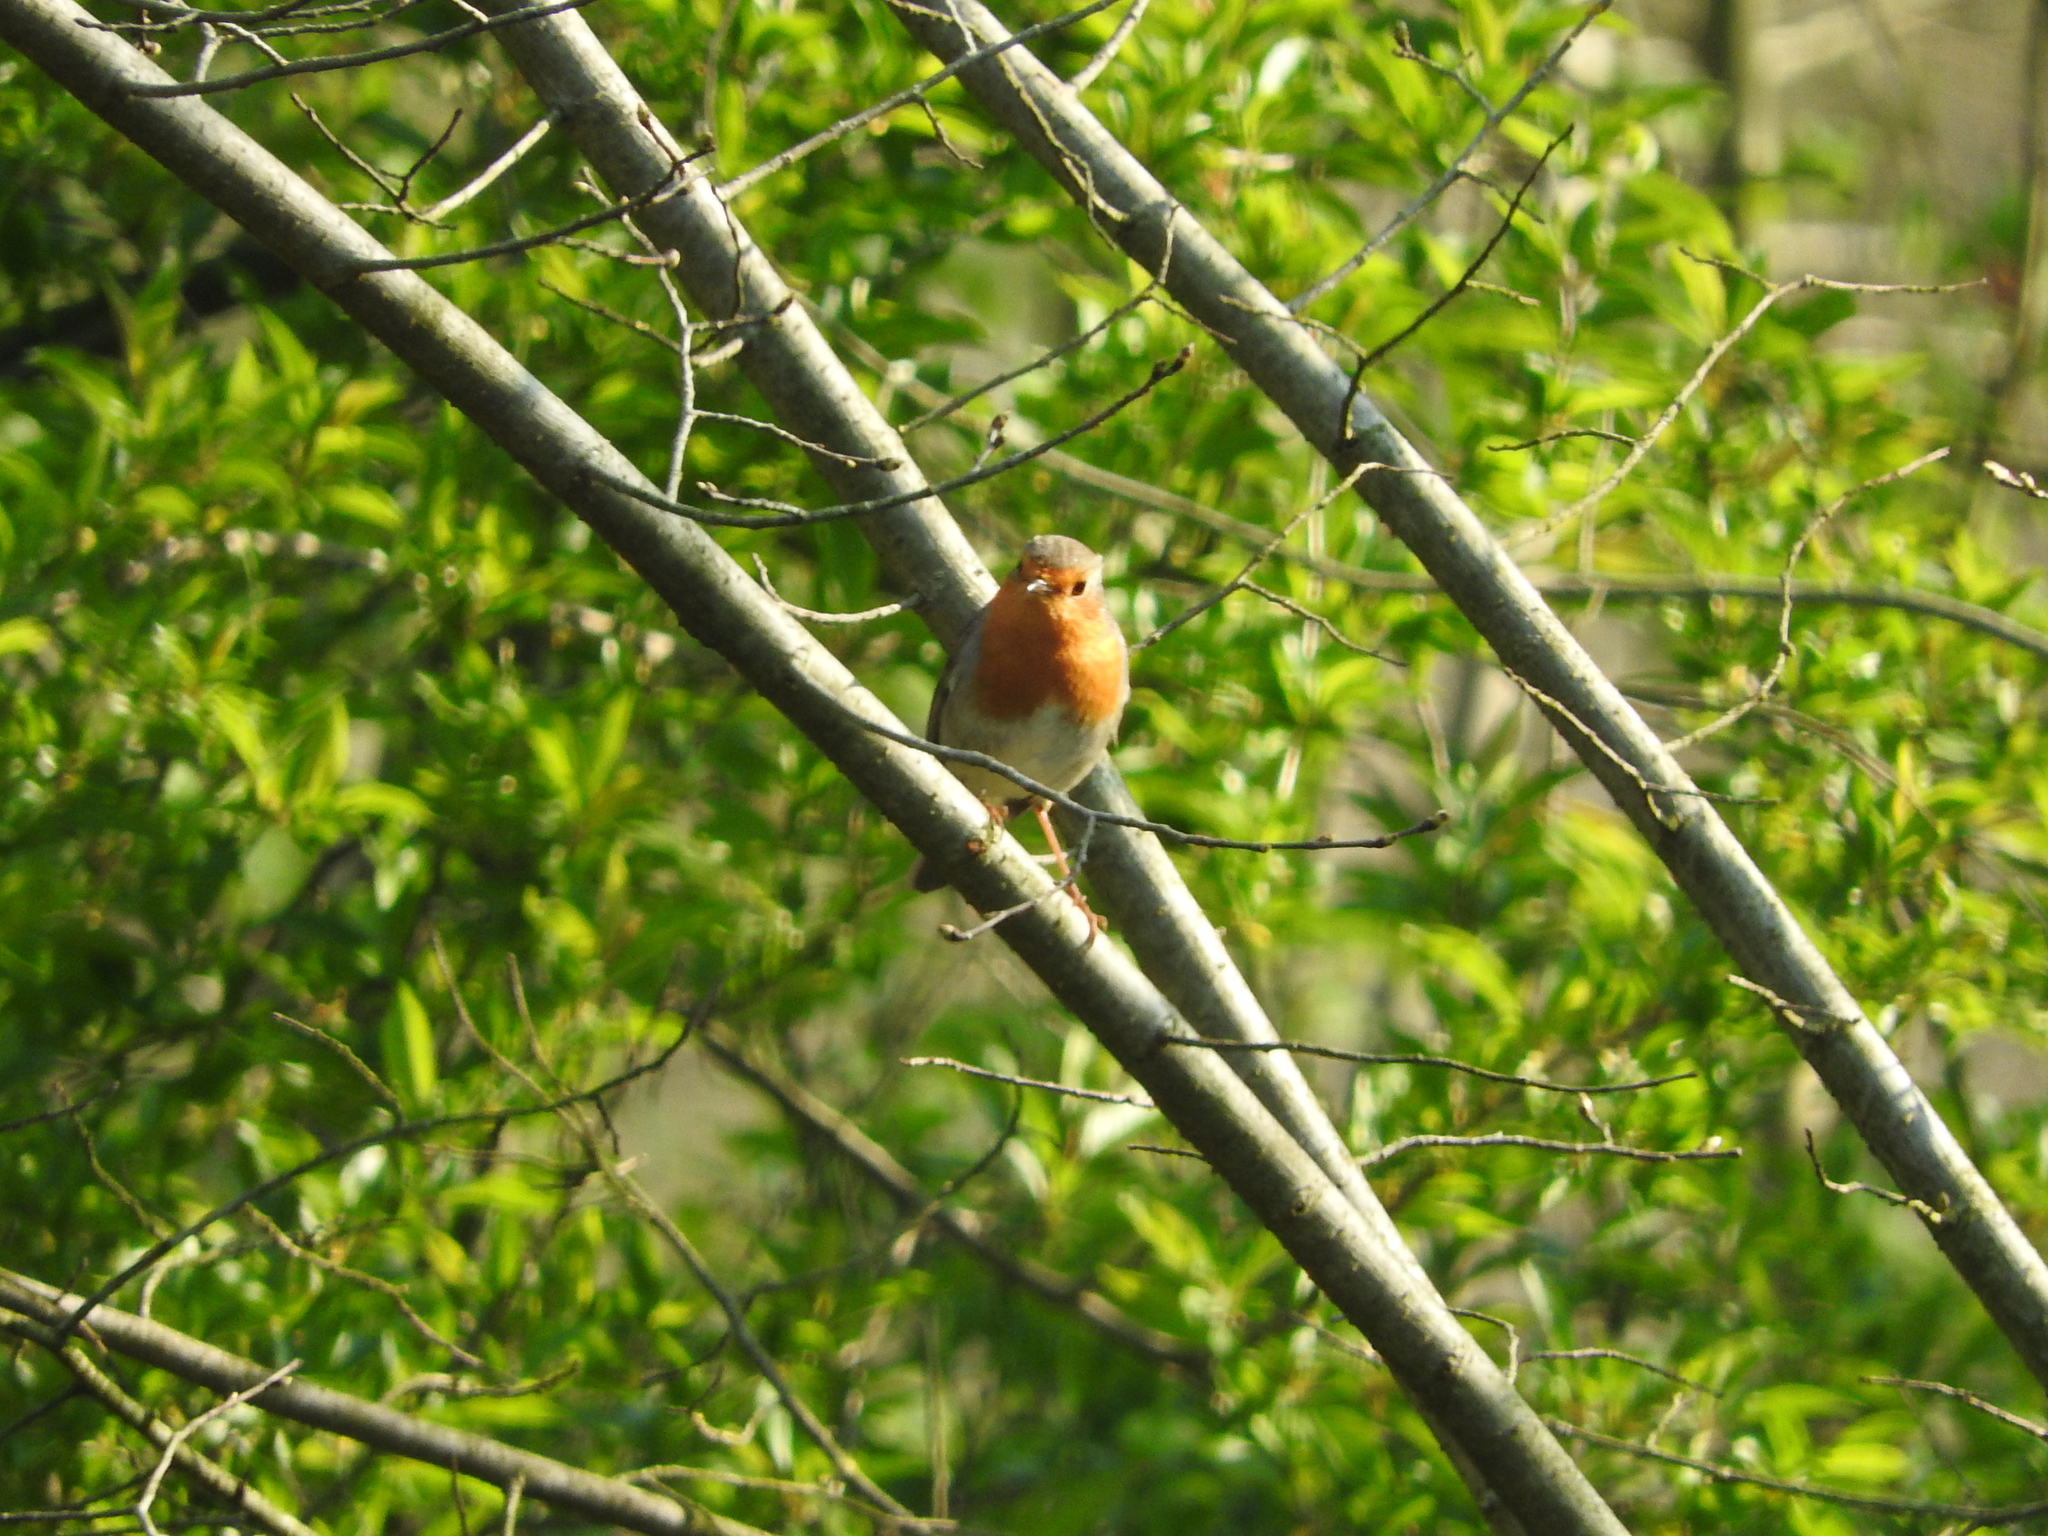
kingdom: Animalia
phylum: Chordata
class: Aves
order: Passeriformes
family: Muscicapidae
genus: Erithacus
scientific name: Erithacus rubecula
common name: European robin
